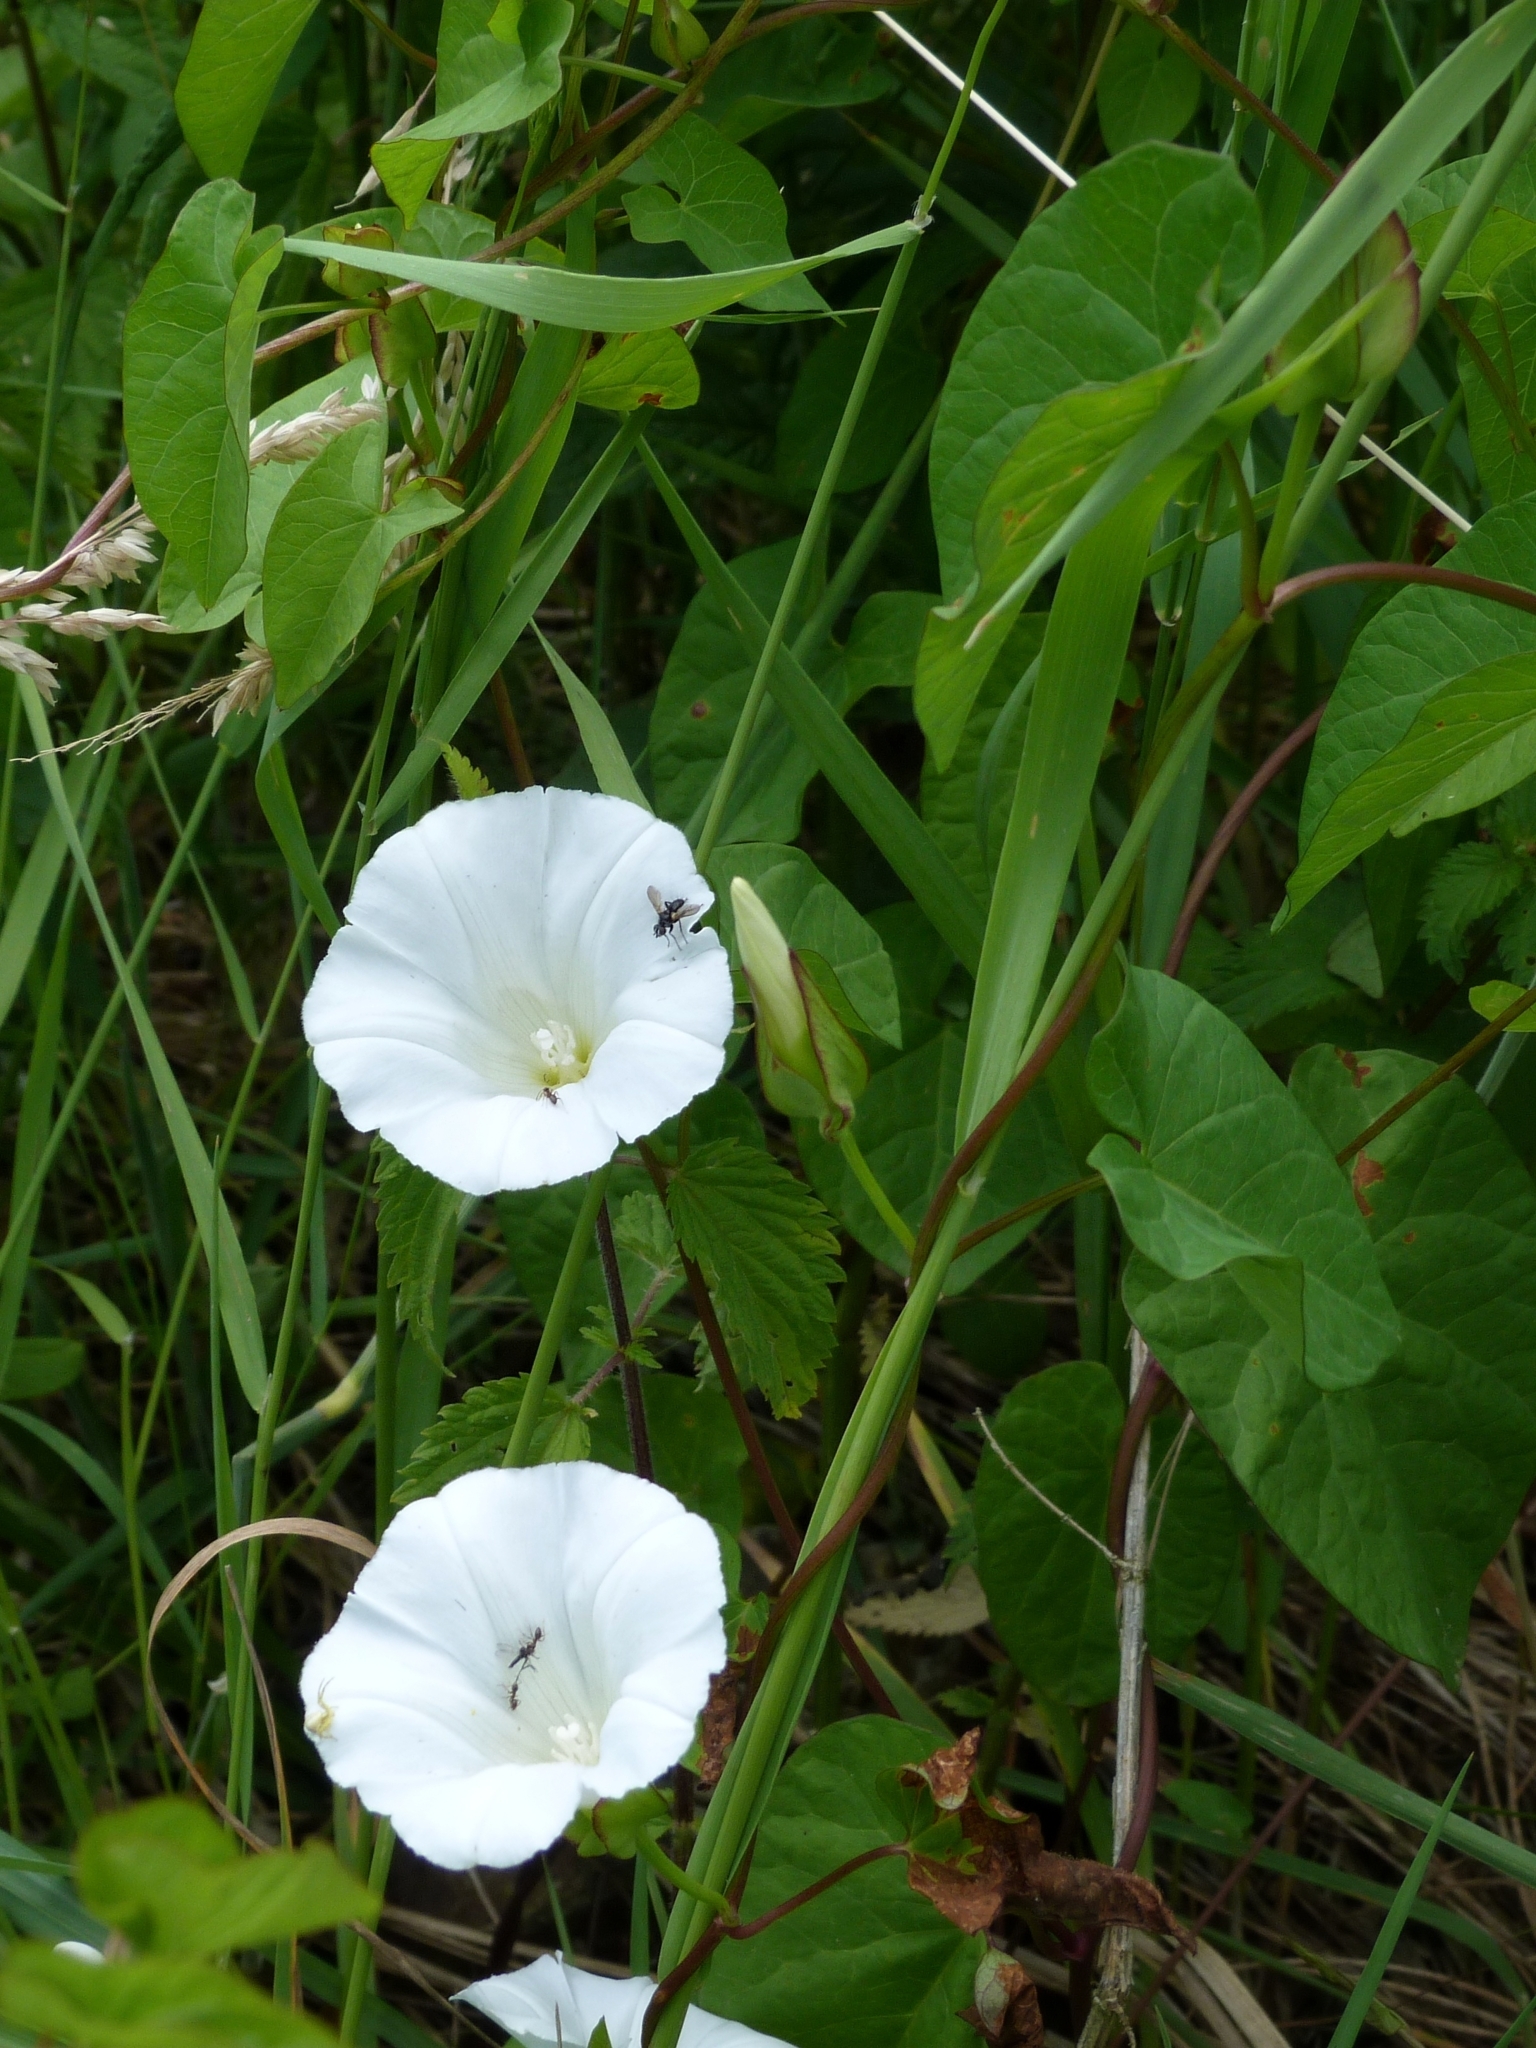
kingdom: Plantae
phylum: Tracheophyta
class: Magnoliopsida
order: Solanales
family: Convolvulaceae
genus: Calystegia
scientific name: Calystegia sepium
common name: Hedge bindweed
